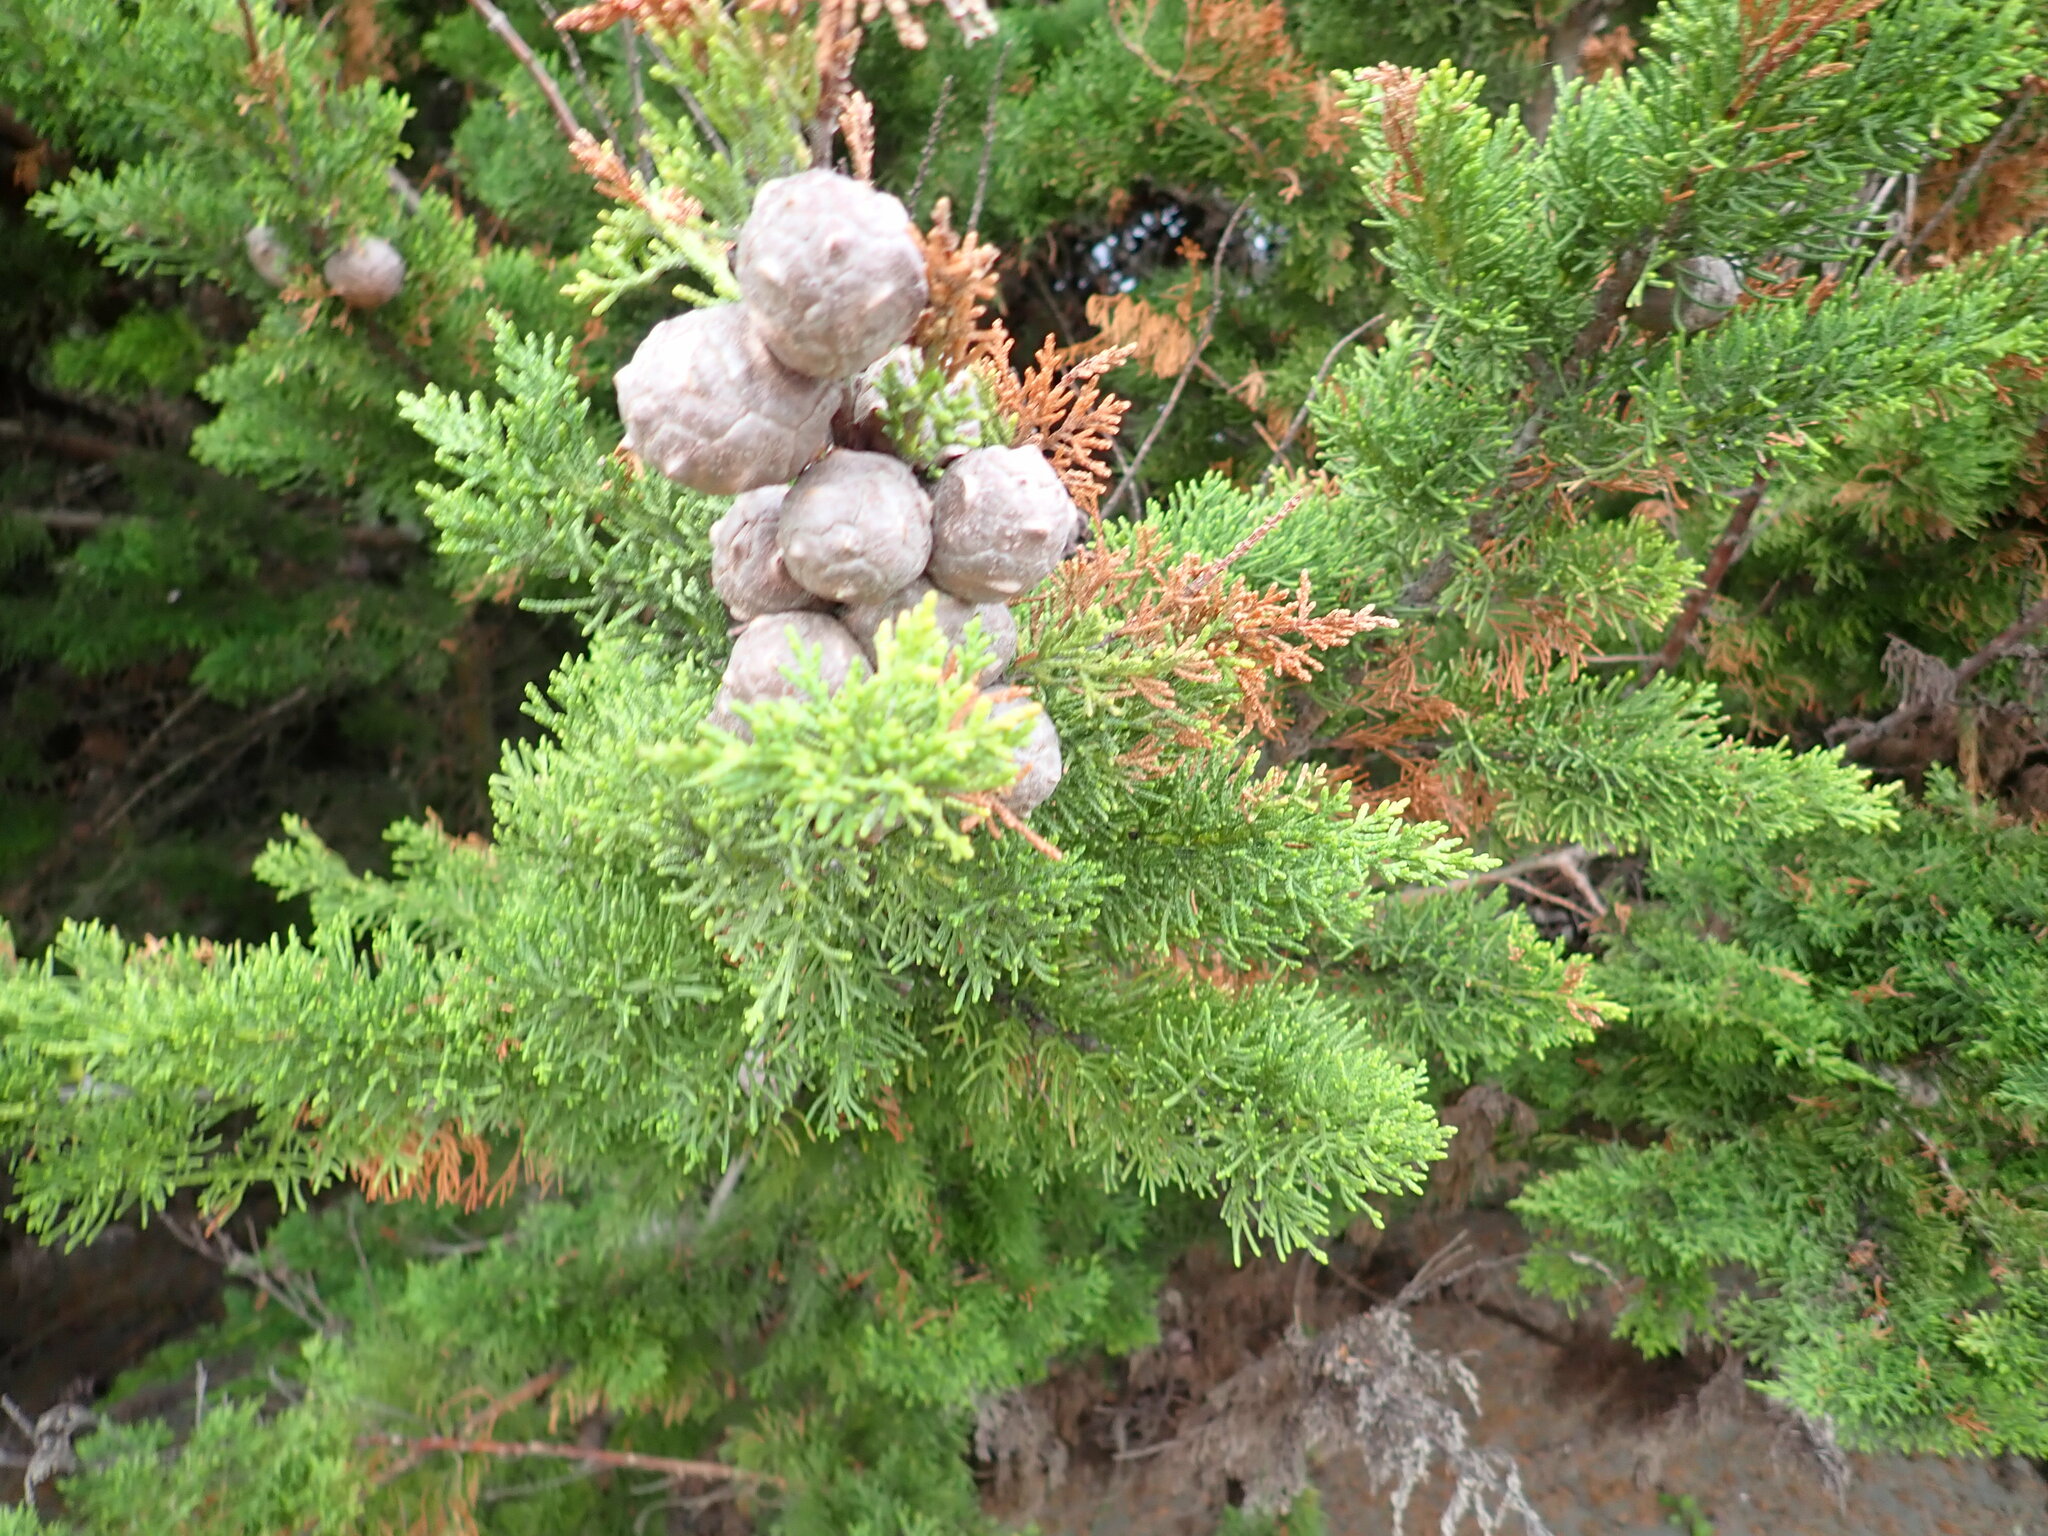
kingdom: Plantae
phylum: Tracheophyta
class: Pinopsida
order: Pinales
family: Cupressaceae
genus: Cupressus
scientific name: Cupressus macrocarpa
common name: Monterey cypress
